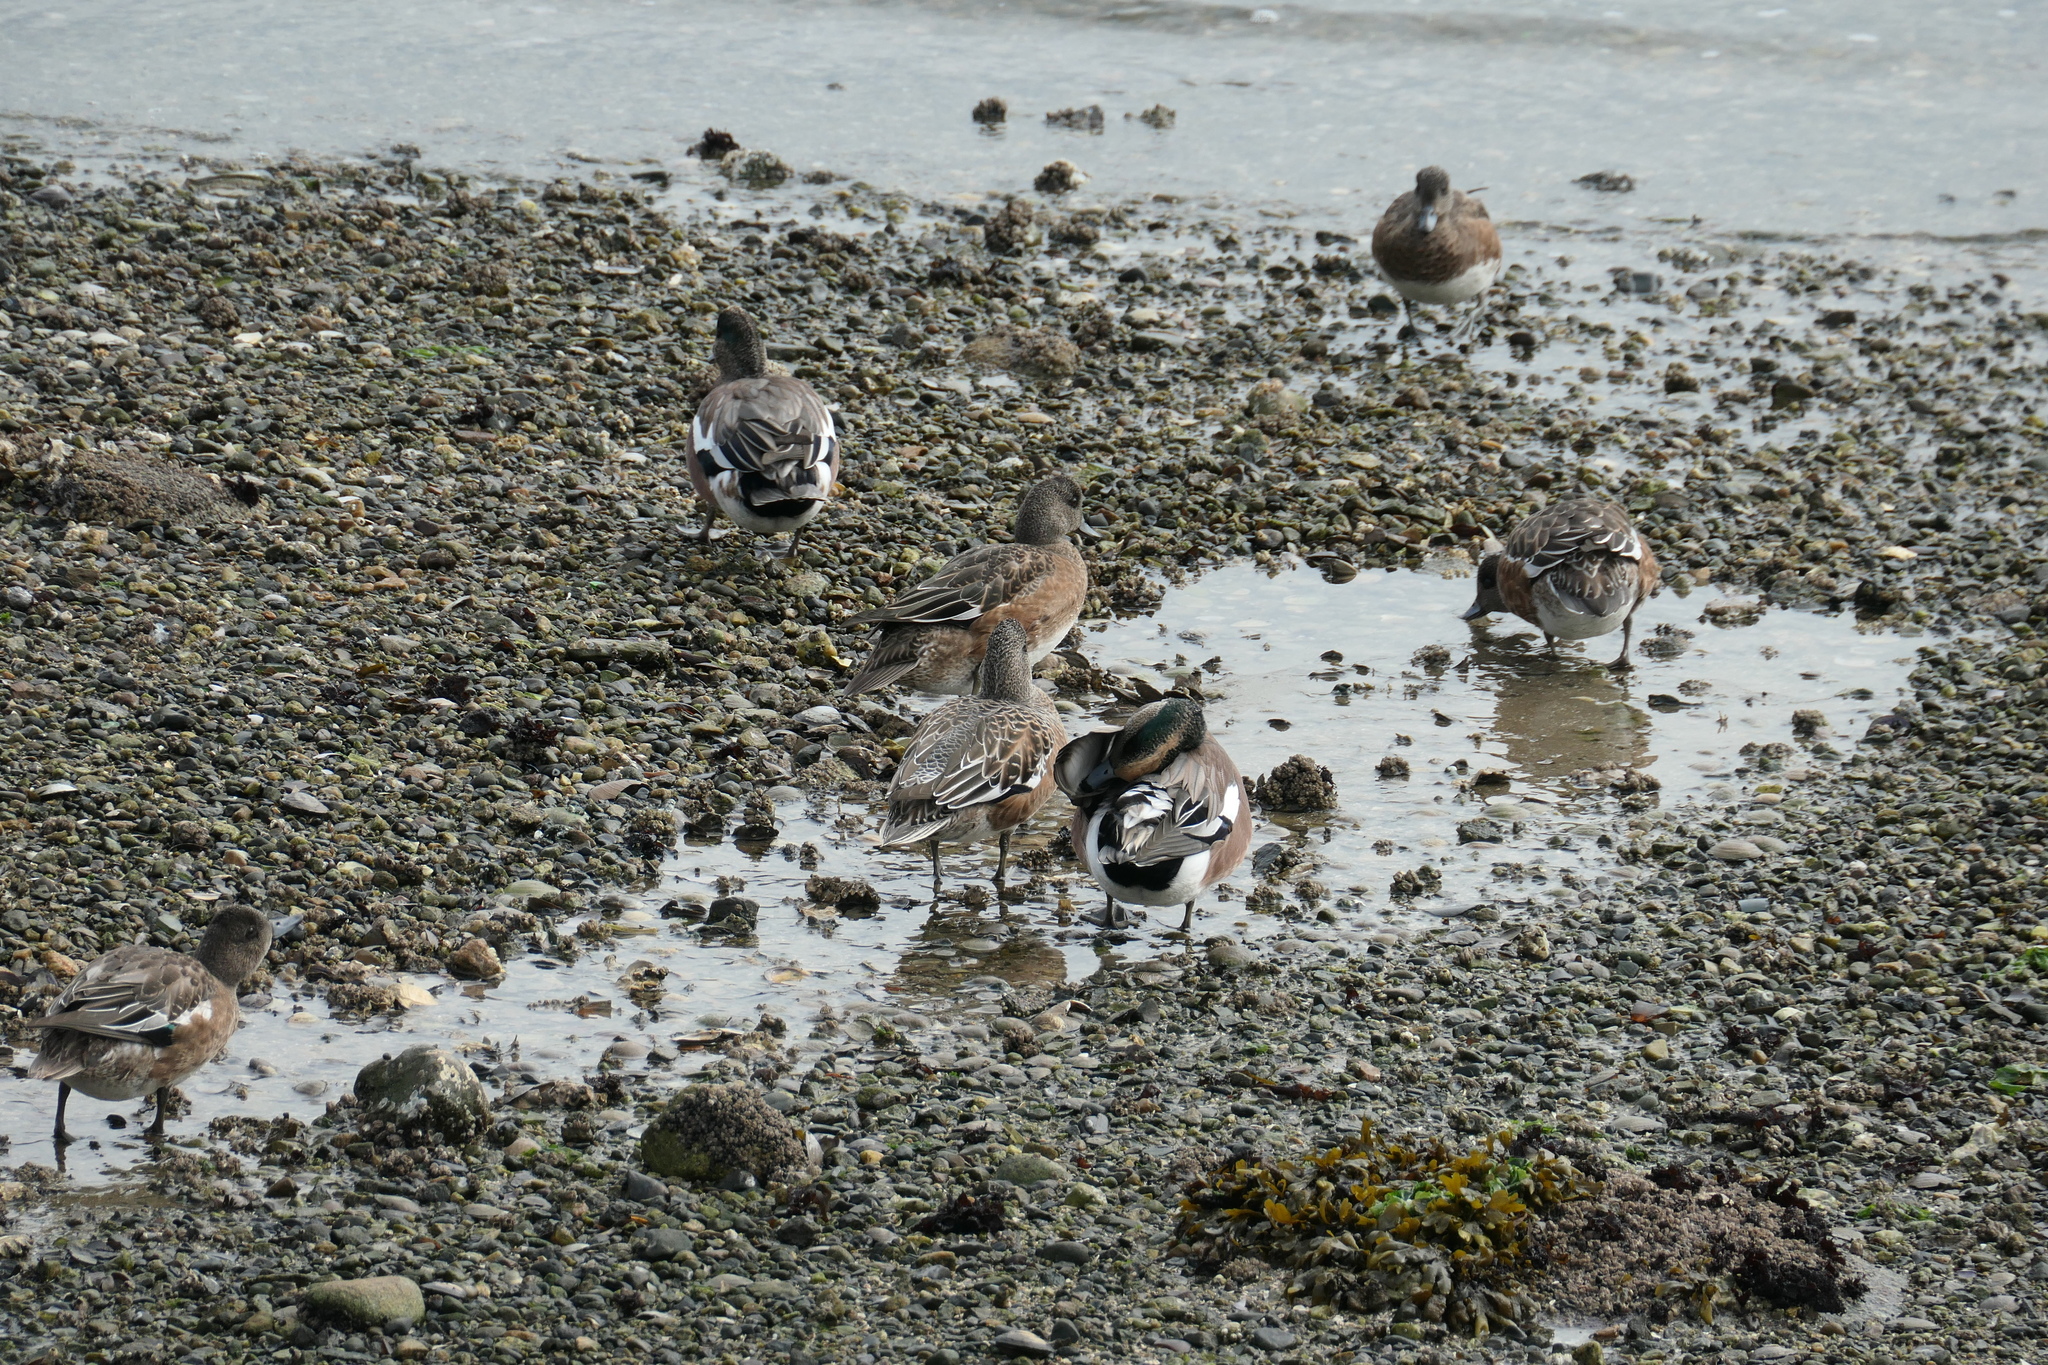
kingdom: Animalia
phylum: Chordata
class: Aves
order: Anseriformes
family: Anatidae
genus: Mareca
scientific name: Mareca americana
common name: American wigeon
